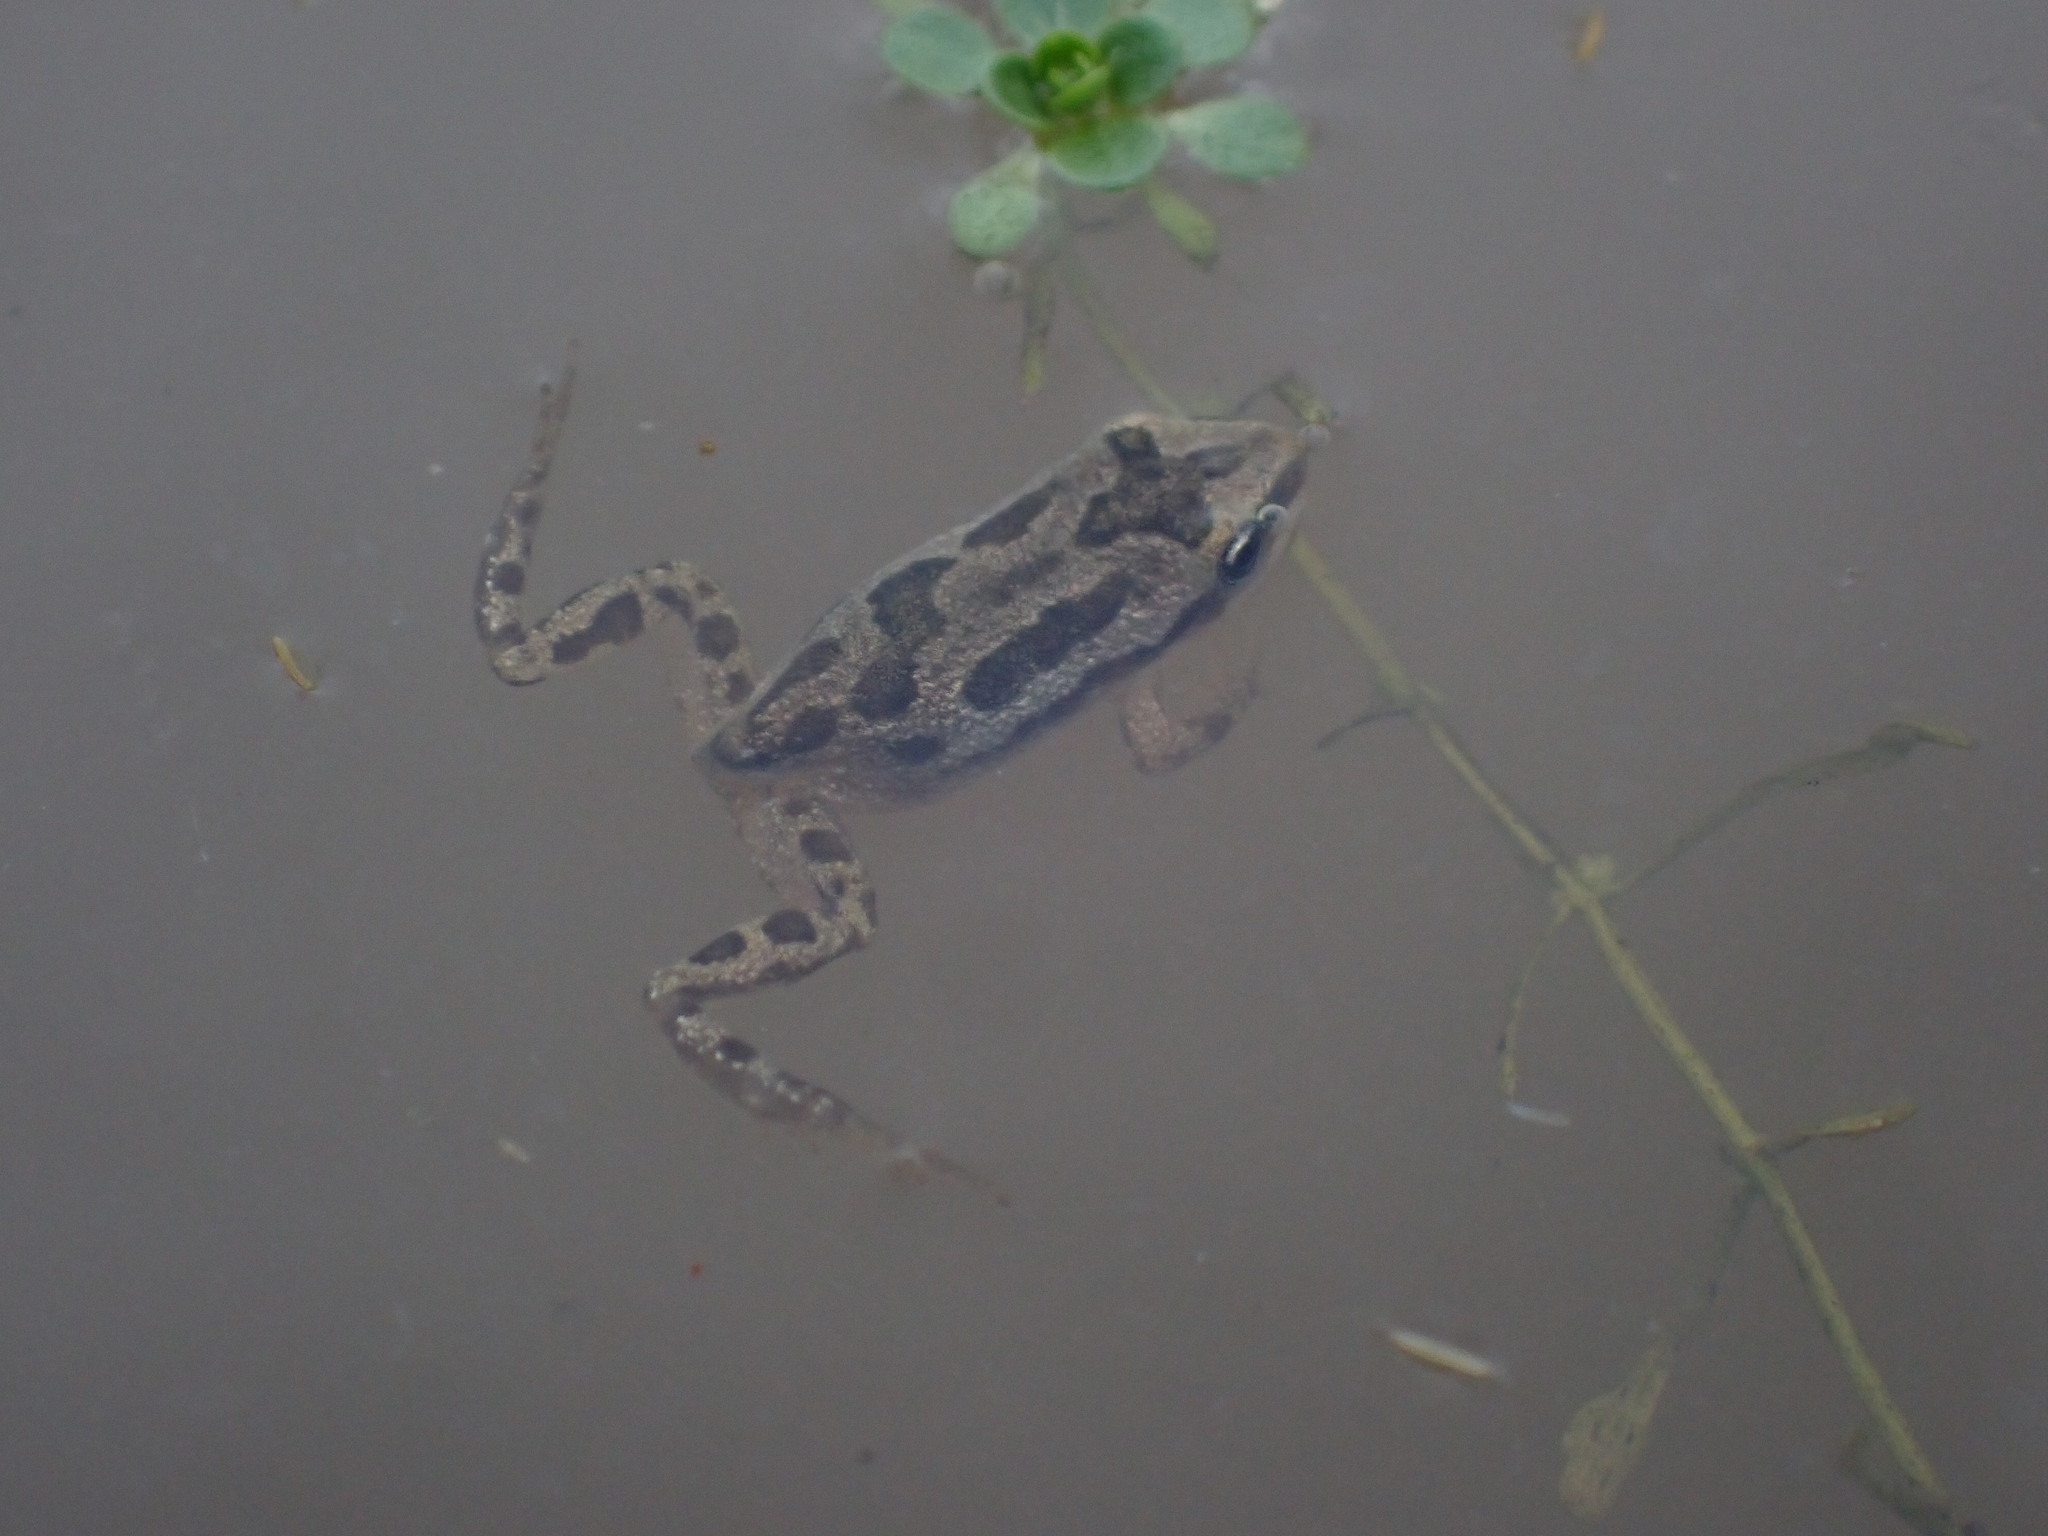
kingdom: Animalia
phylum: Chordata
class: Amphibia
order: Anura
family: Hylidae
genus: Pseudacris
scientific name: Pseudacris maculata
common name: Boreal chorus frog
